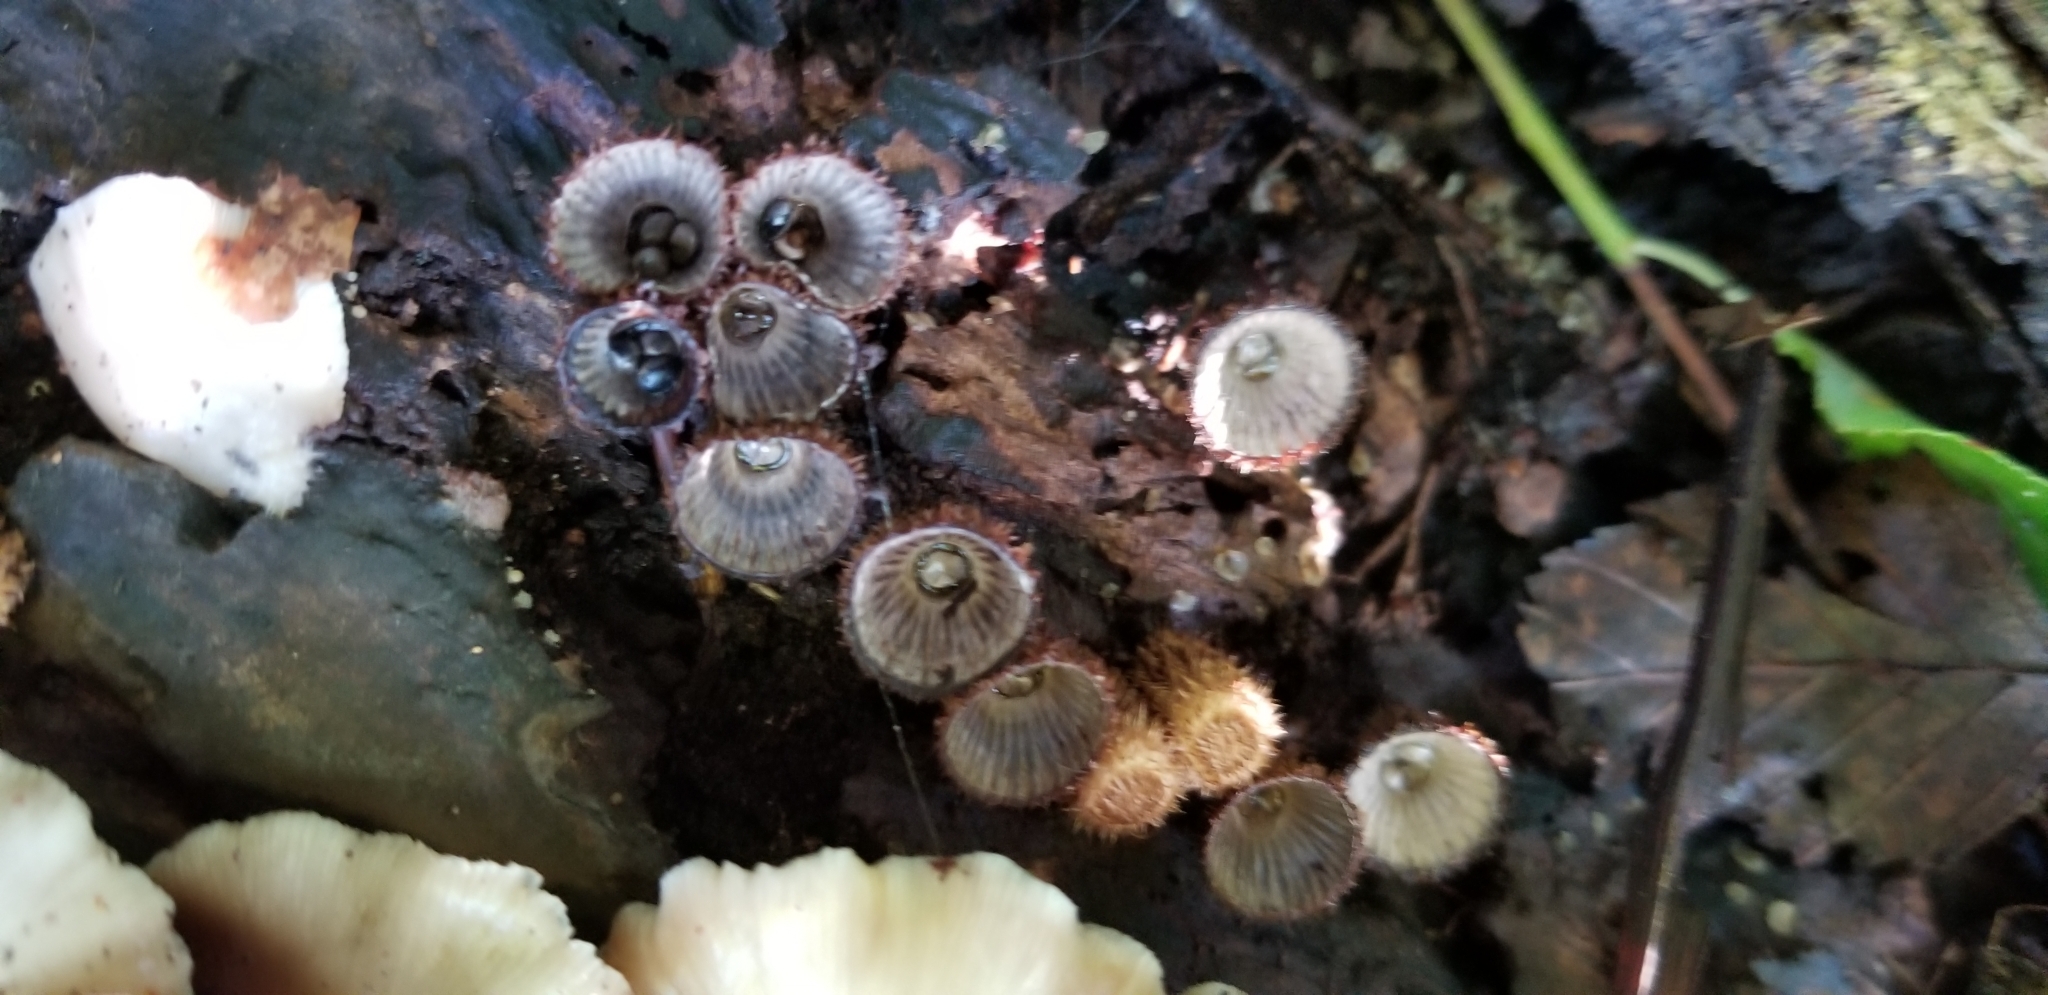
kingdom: Fungi
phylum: Basidiomycota
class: Agaricomycetes
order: Agaricales
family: Agaricaceae
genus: Cyathus
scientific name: Cyathus striatus
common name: Fluted bird's nest
